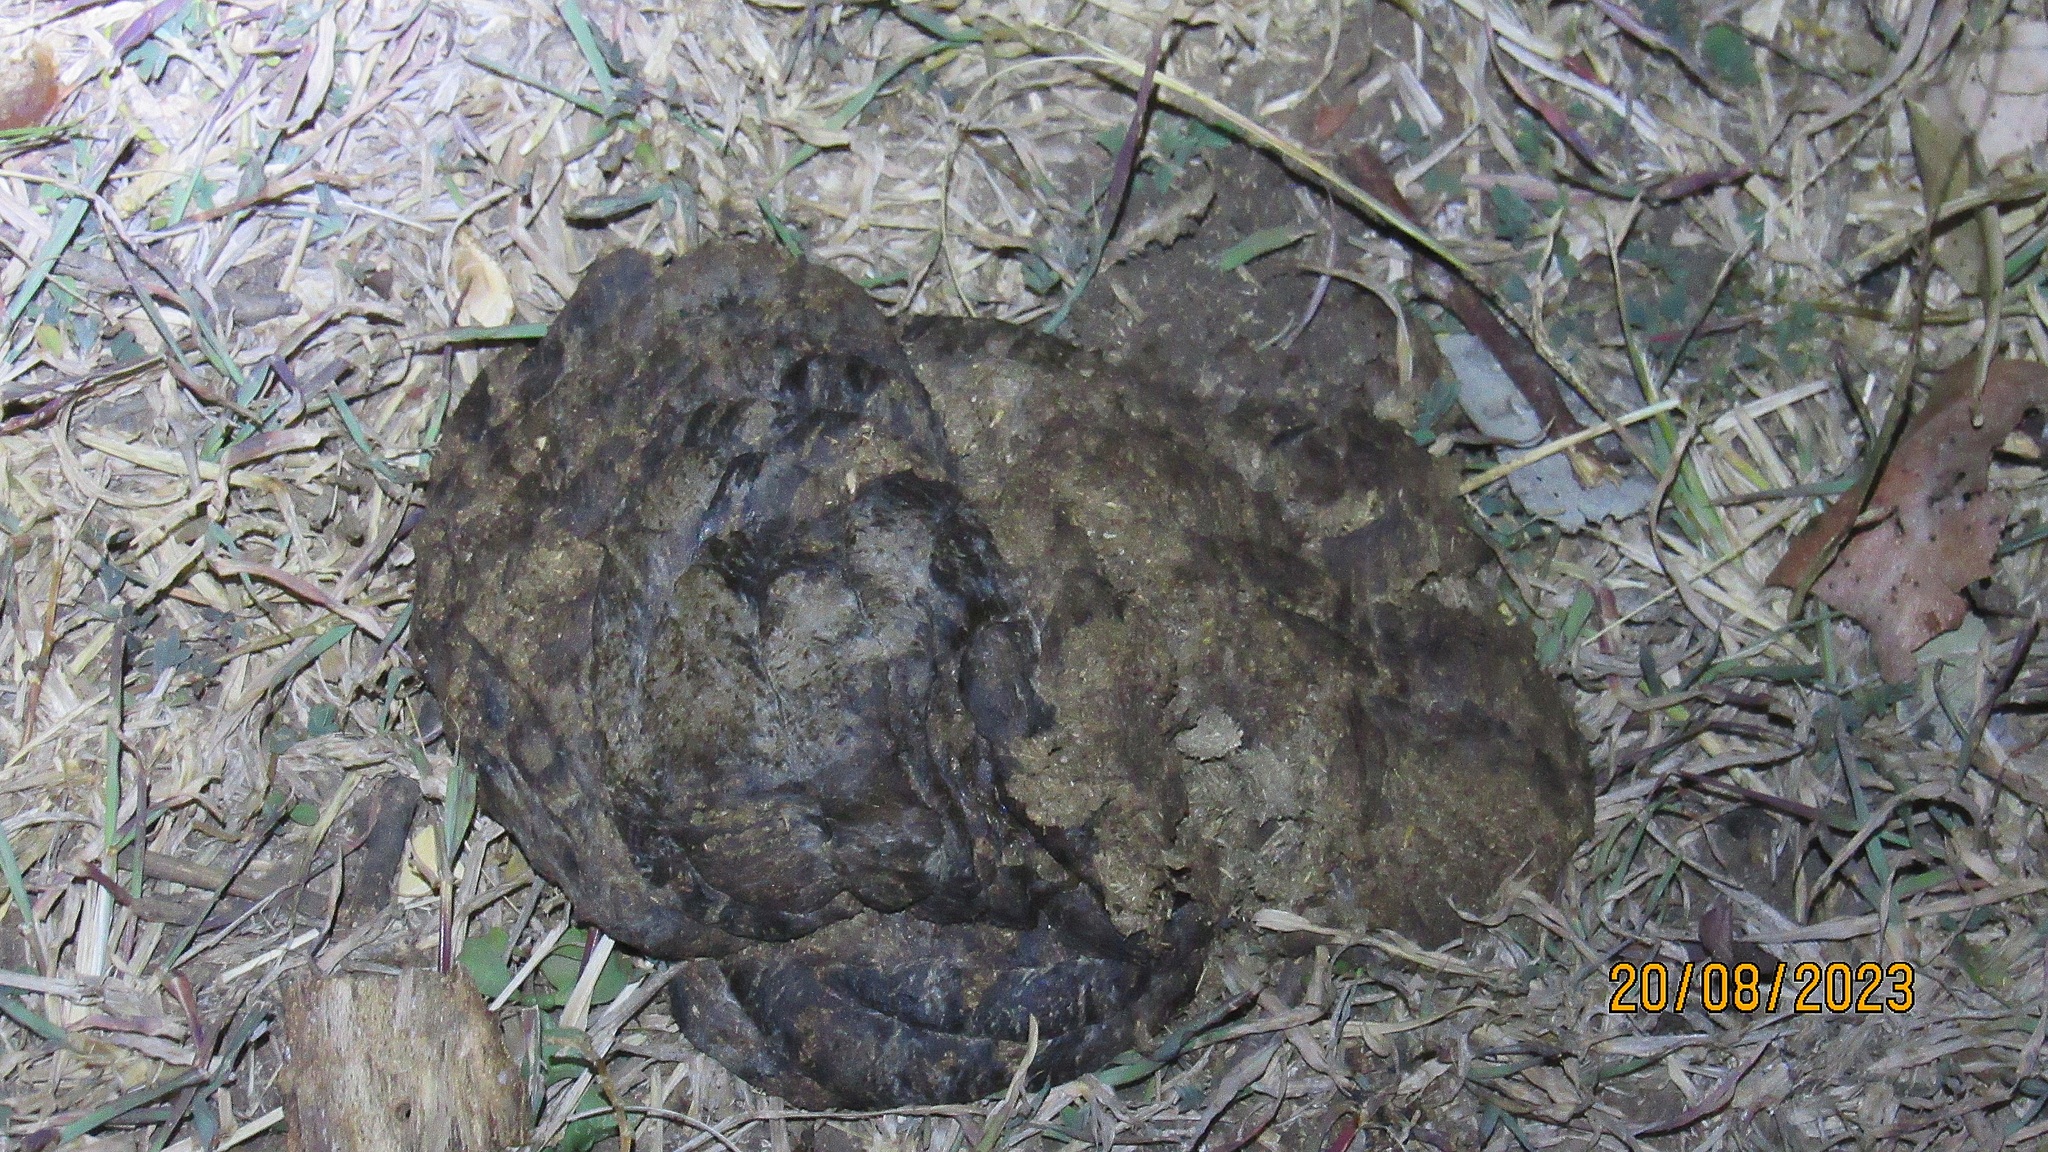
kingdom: Animalia
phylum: Chordata
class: Mammalia
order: Artiodactyla
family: Bovidae
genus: Syncerus
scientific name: Syncerus caffer
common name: African buffalo
